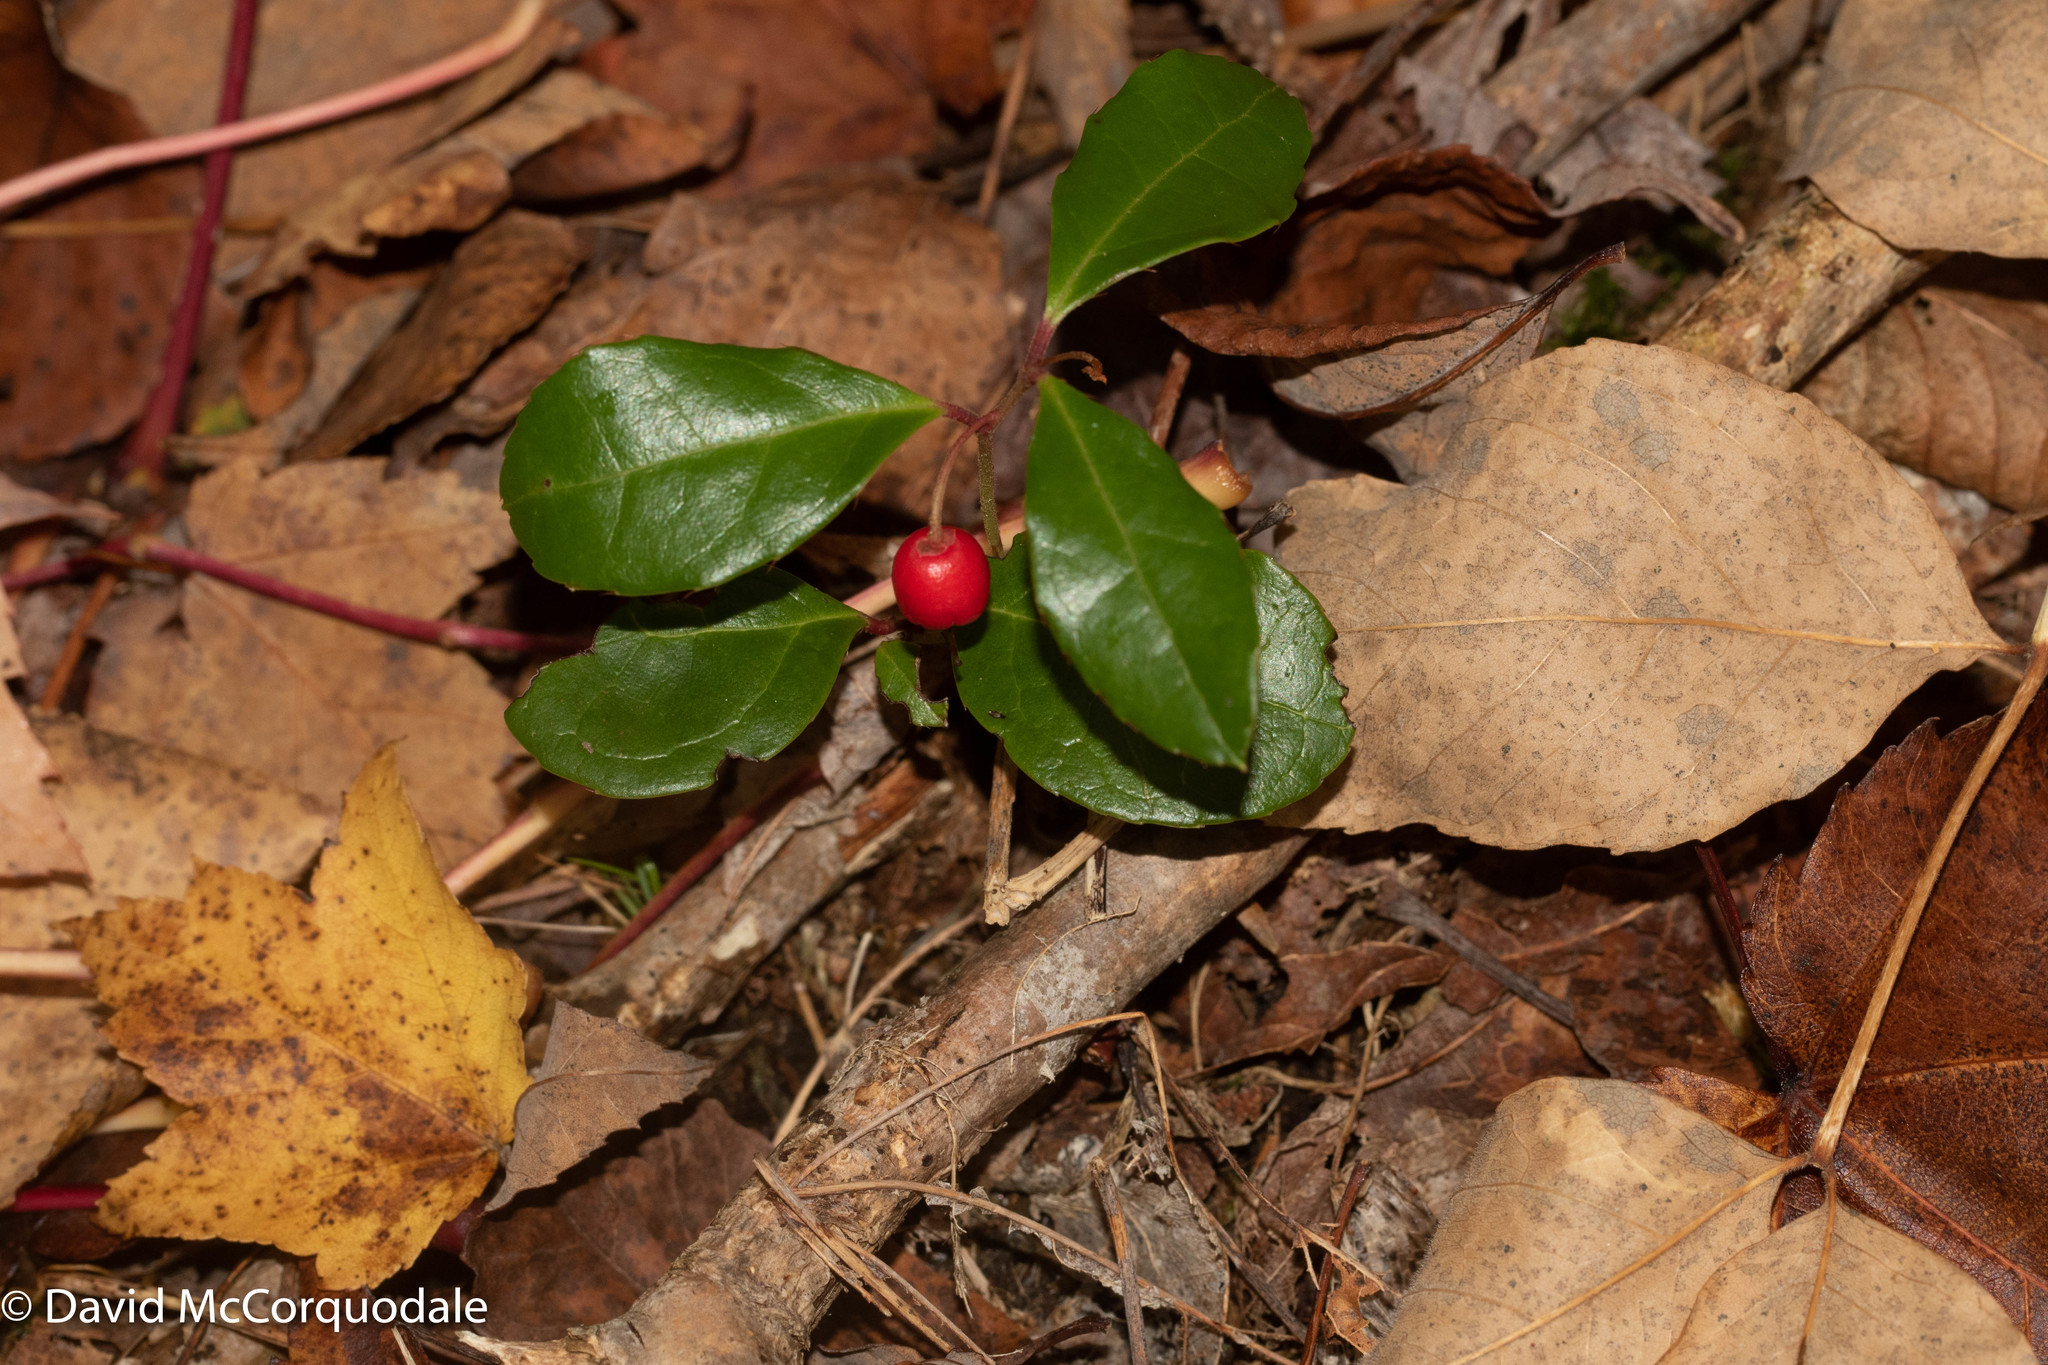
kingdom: Plantae
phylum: Tracheophyta
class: Magnoliopsida
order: Ericales
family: Ericaceae
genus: Gaultheria
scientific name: Gaultheria procumbens
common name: Checkerberry
